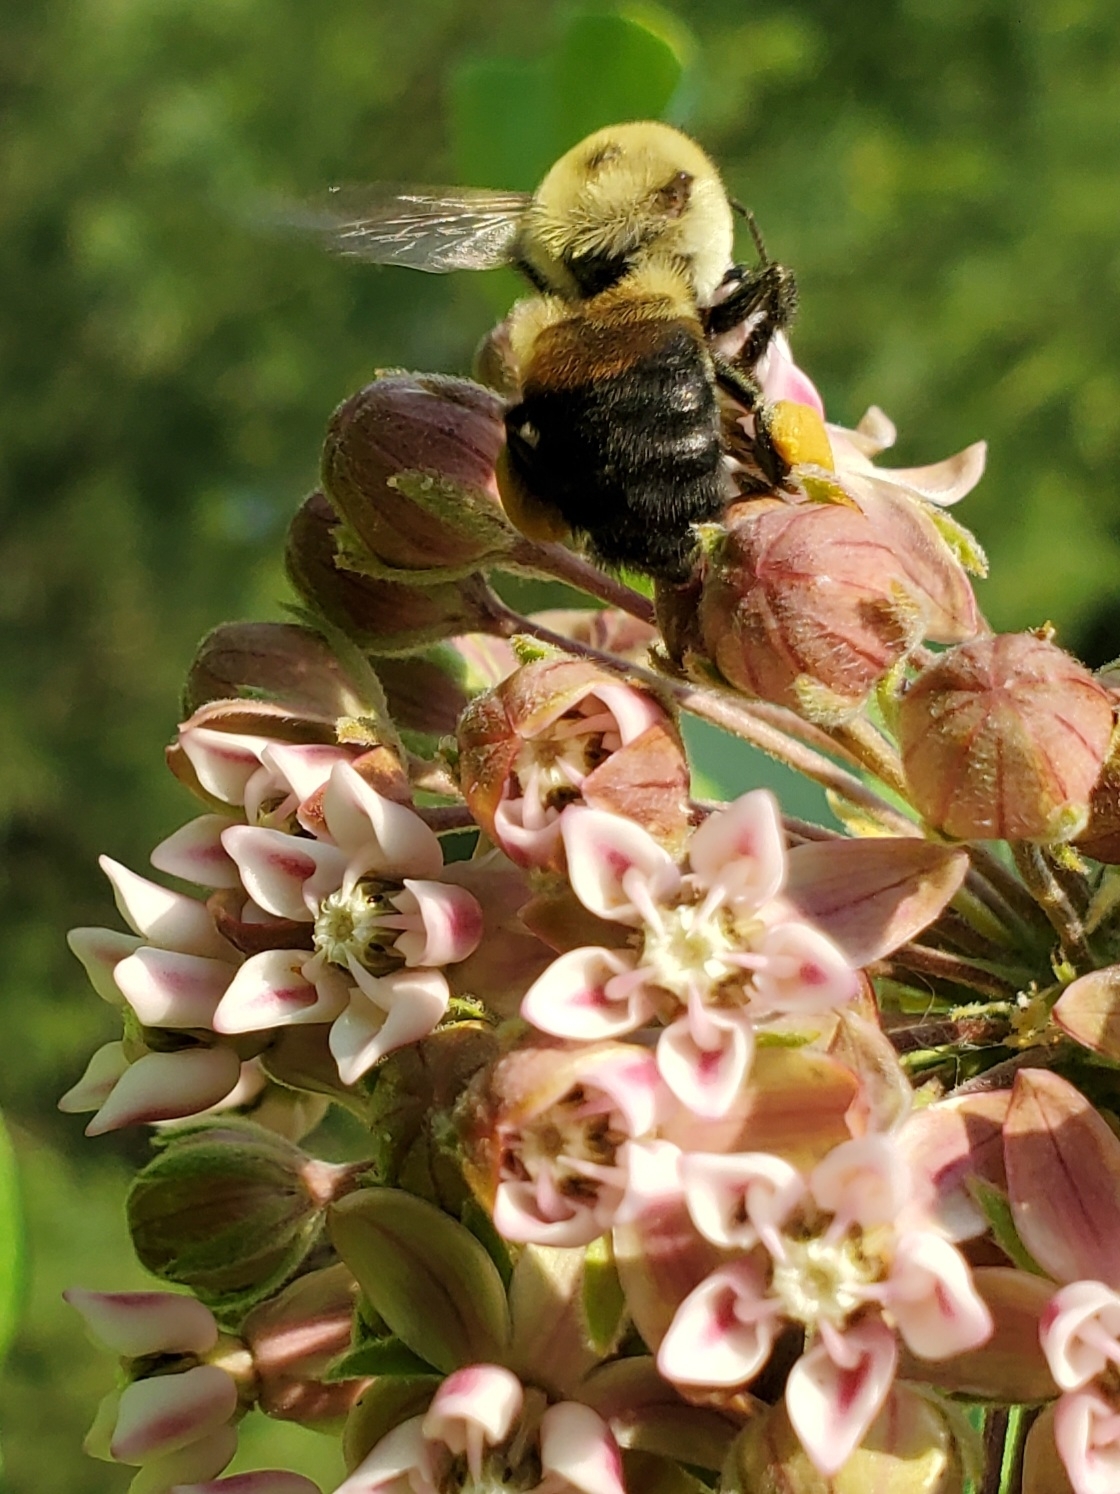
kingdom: Animalia
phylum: Arthropoda
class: Insecta
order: Hymenoptera
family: Apidae
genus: Bombus
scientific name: Bombus griseocollis
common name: Brown-belted bumble bee
